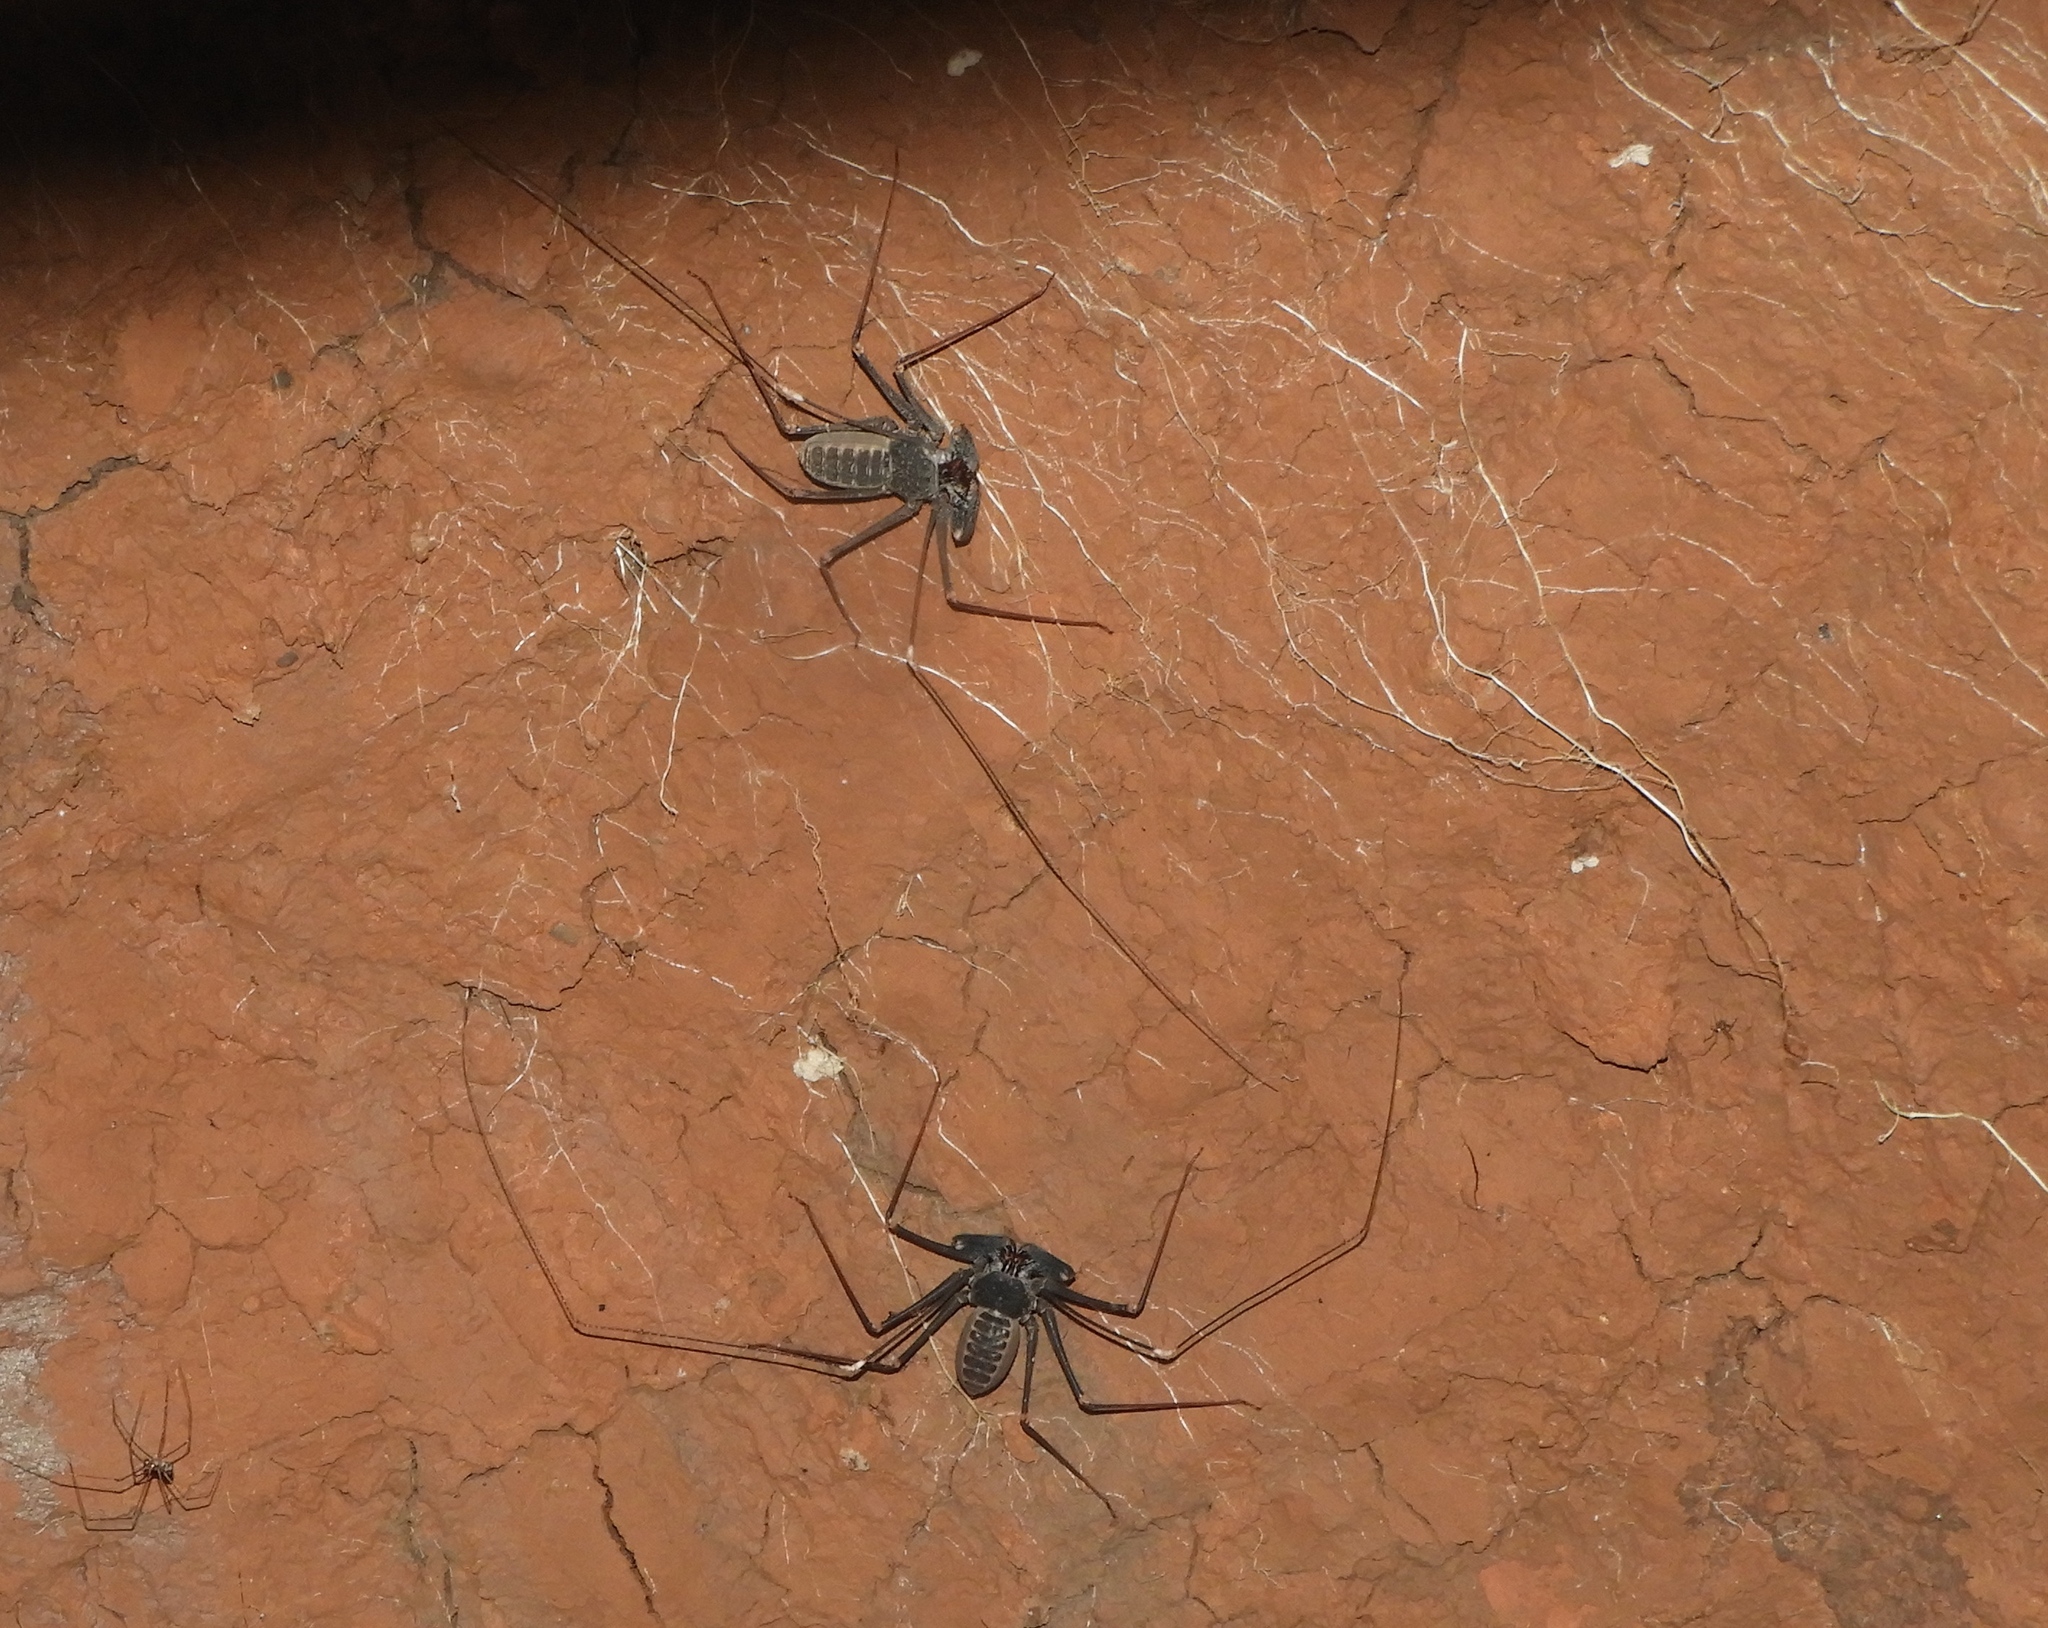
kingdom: Animalia
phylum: Arthropoda
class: Arachnida
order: Amblypygi
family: Phrynidae
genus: Acanthophrynus
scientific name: Acanthophrynus coronatus
